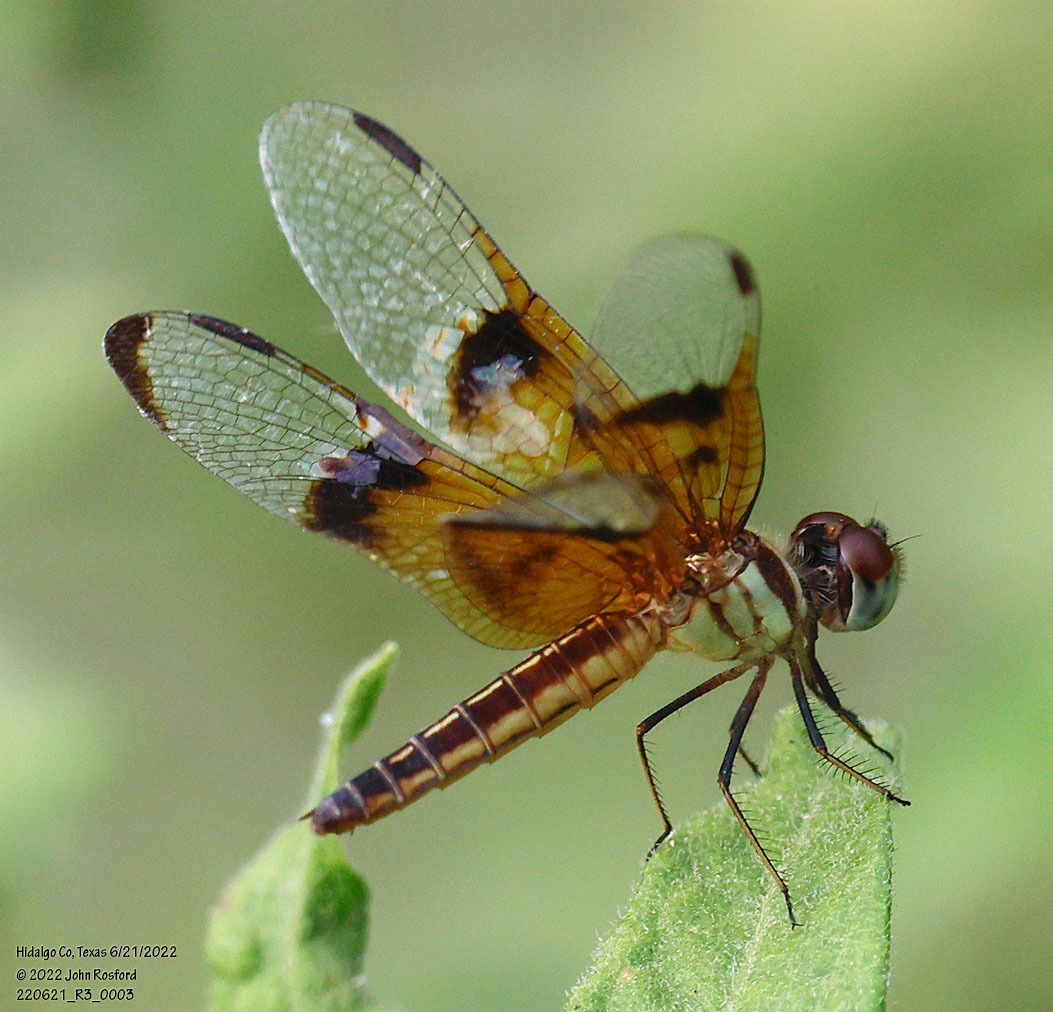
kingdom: Animalia
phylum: Arthropoda
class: Insecta
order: Odonata
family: Libellulidae
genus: Perithemis
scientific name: Perithemis domitia
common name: Slough amberwing
